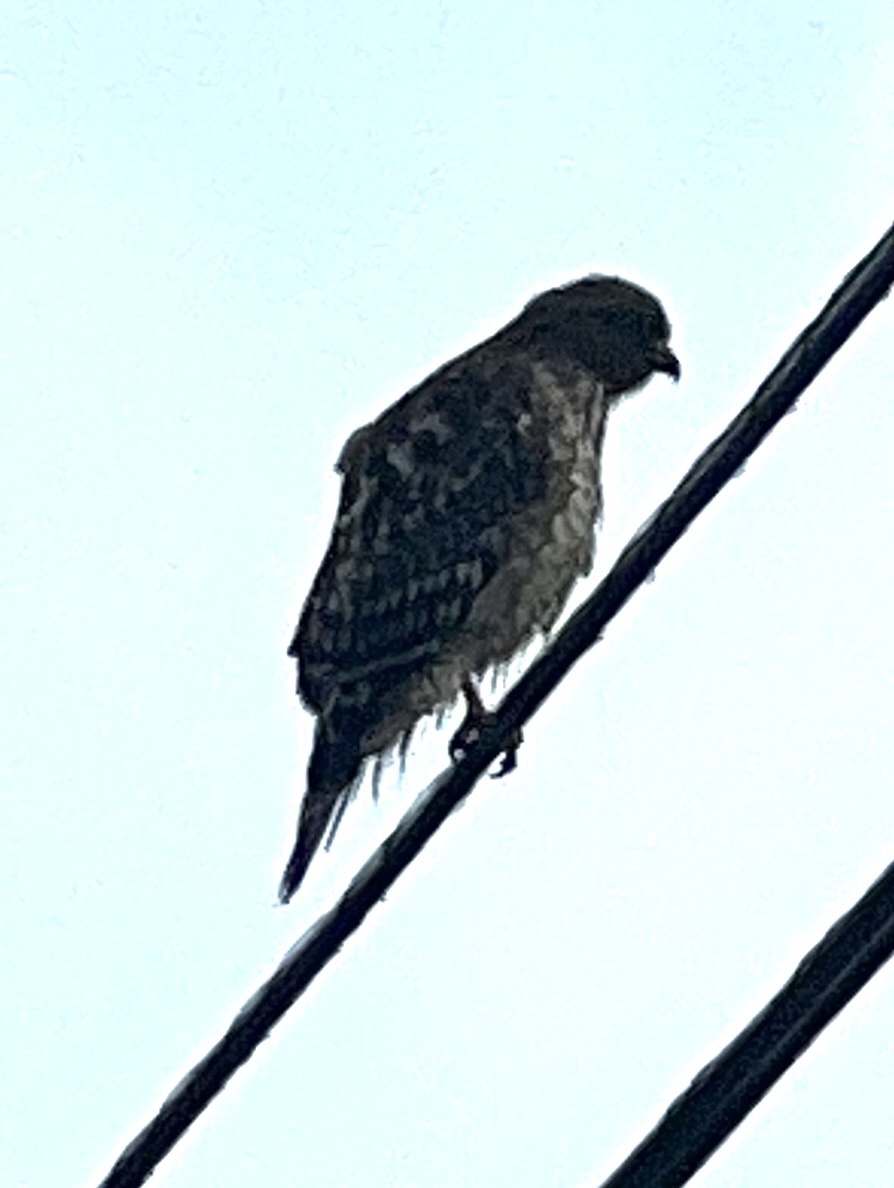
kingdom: Animalia
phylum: Chordata
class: Aves
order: Accipitriformes
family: Accipitridae
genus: Buteo
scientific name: Buteo lineatus
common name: Red-shouldered hawk
